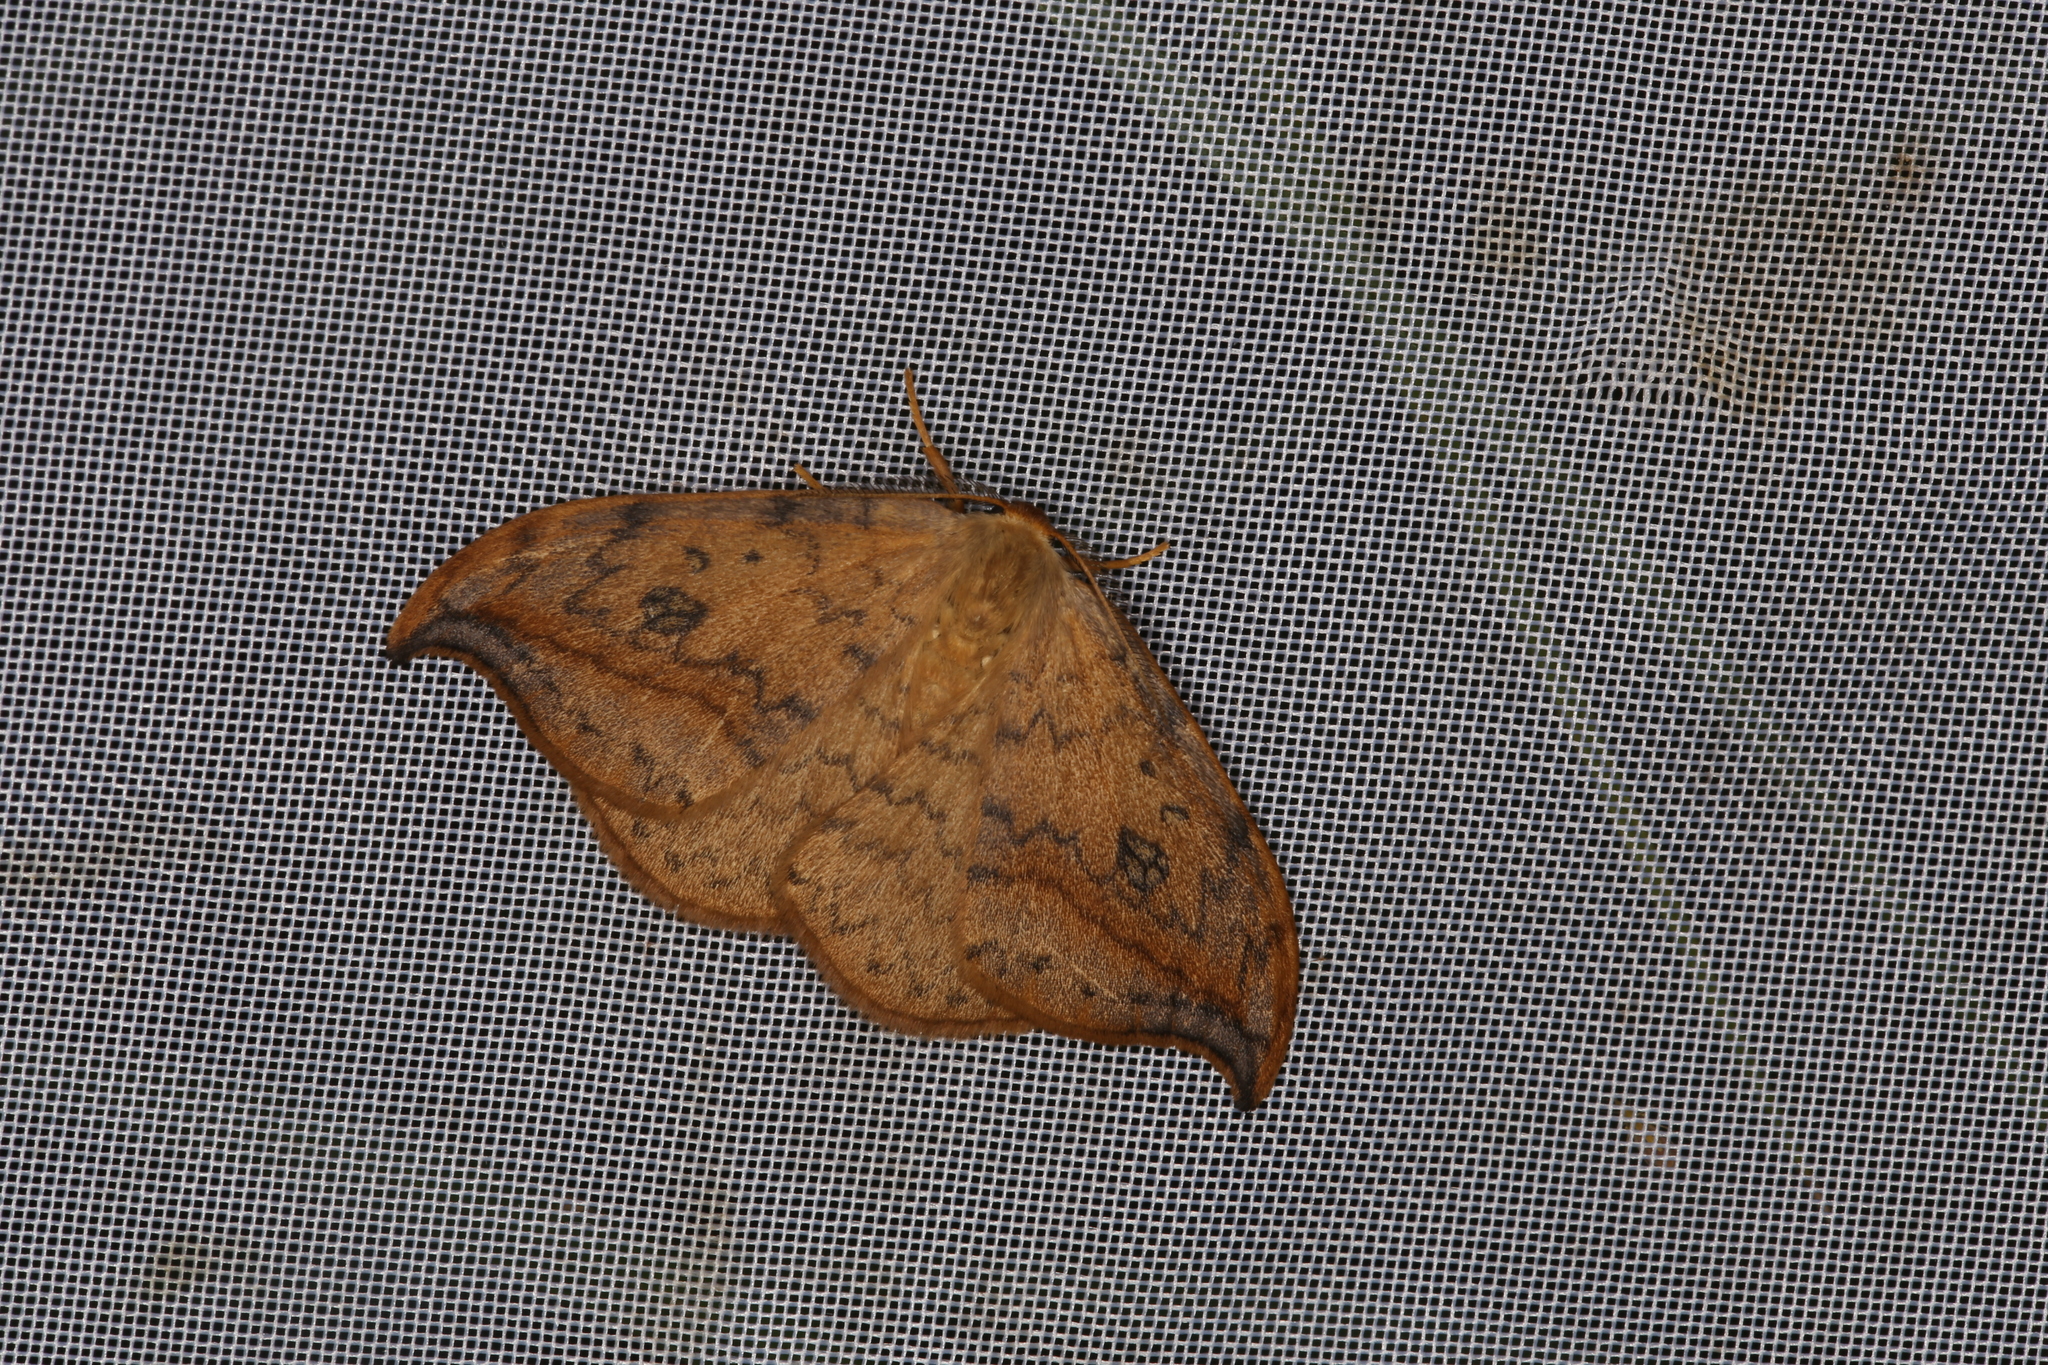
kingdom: Animalia
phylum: Arthropoda
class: Insecta
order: Lepidoptera
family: Drepanidae
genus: Drepana
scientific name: Drepana falcataria
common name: Pebble hook-tip
